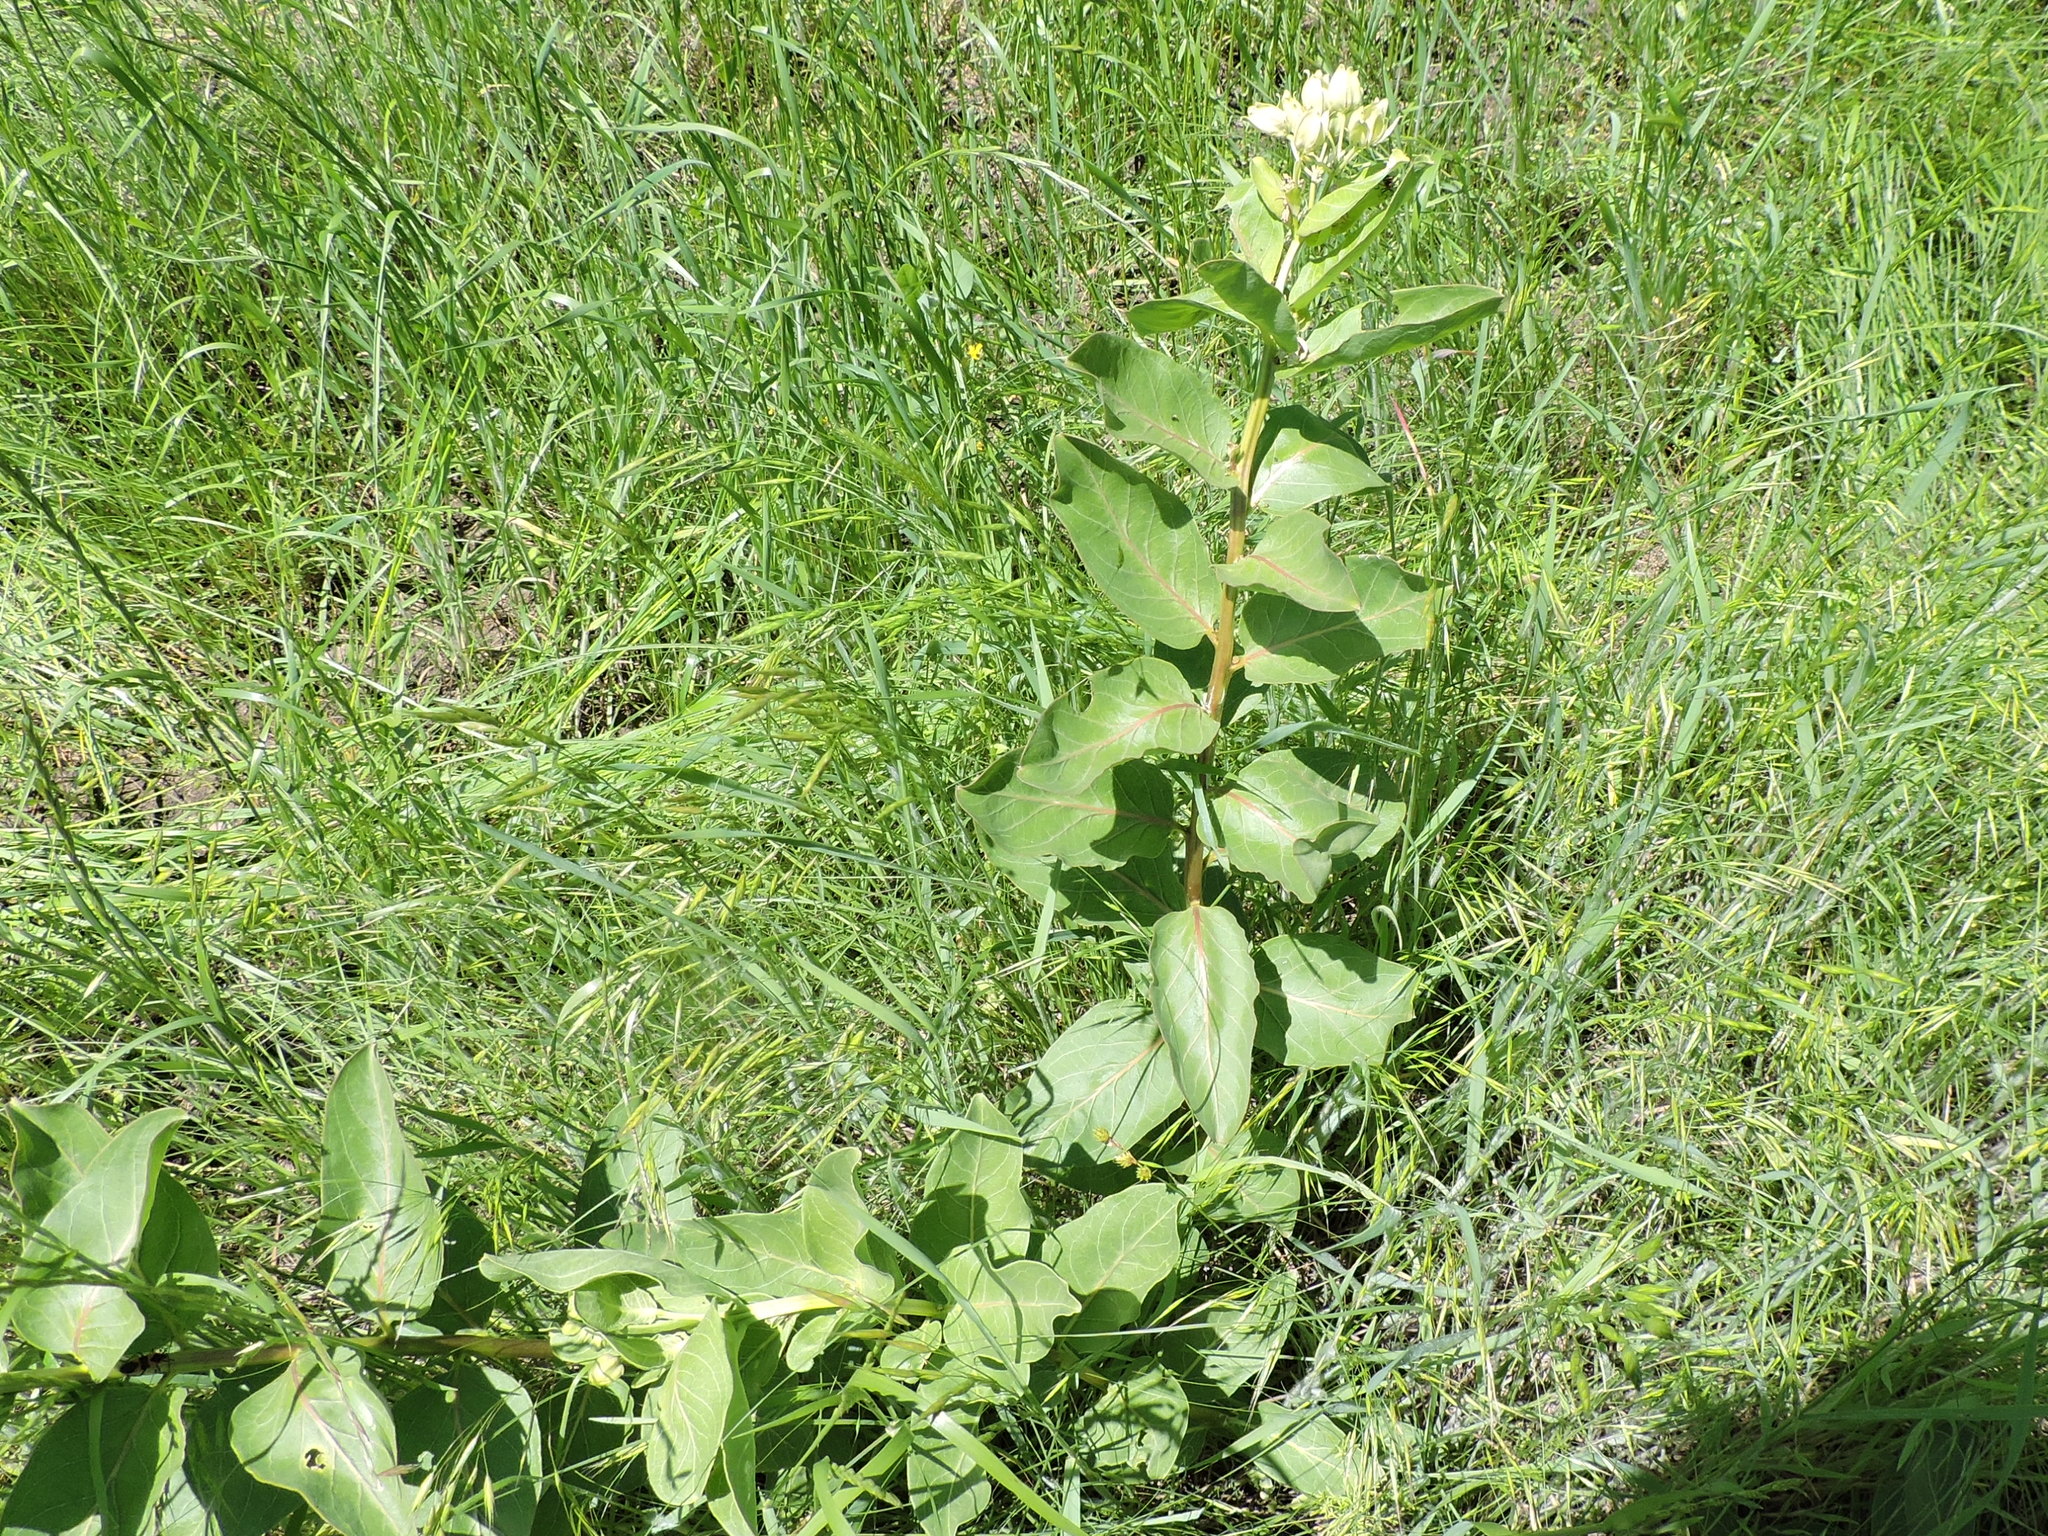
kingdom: Plantae
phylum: Tracheophyta
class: Magnoliopsida
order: Gentianales
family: Apocynaceae
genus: Asclepias
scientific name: Asclepias viridis
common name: Antelope-horns
